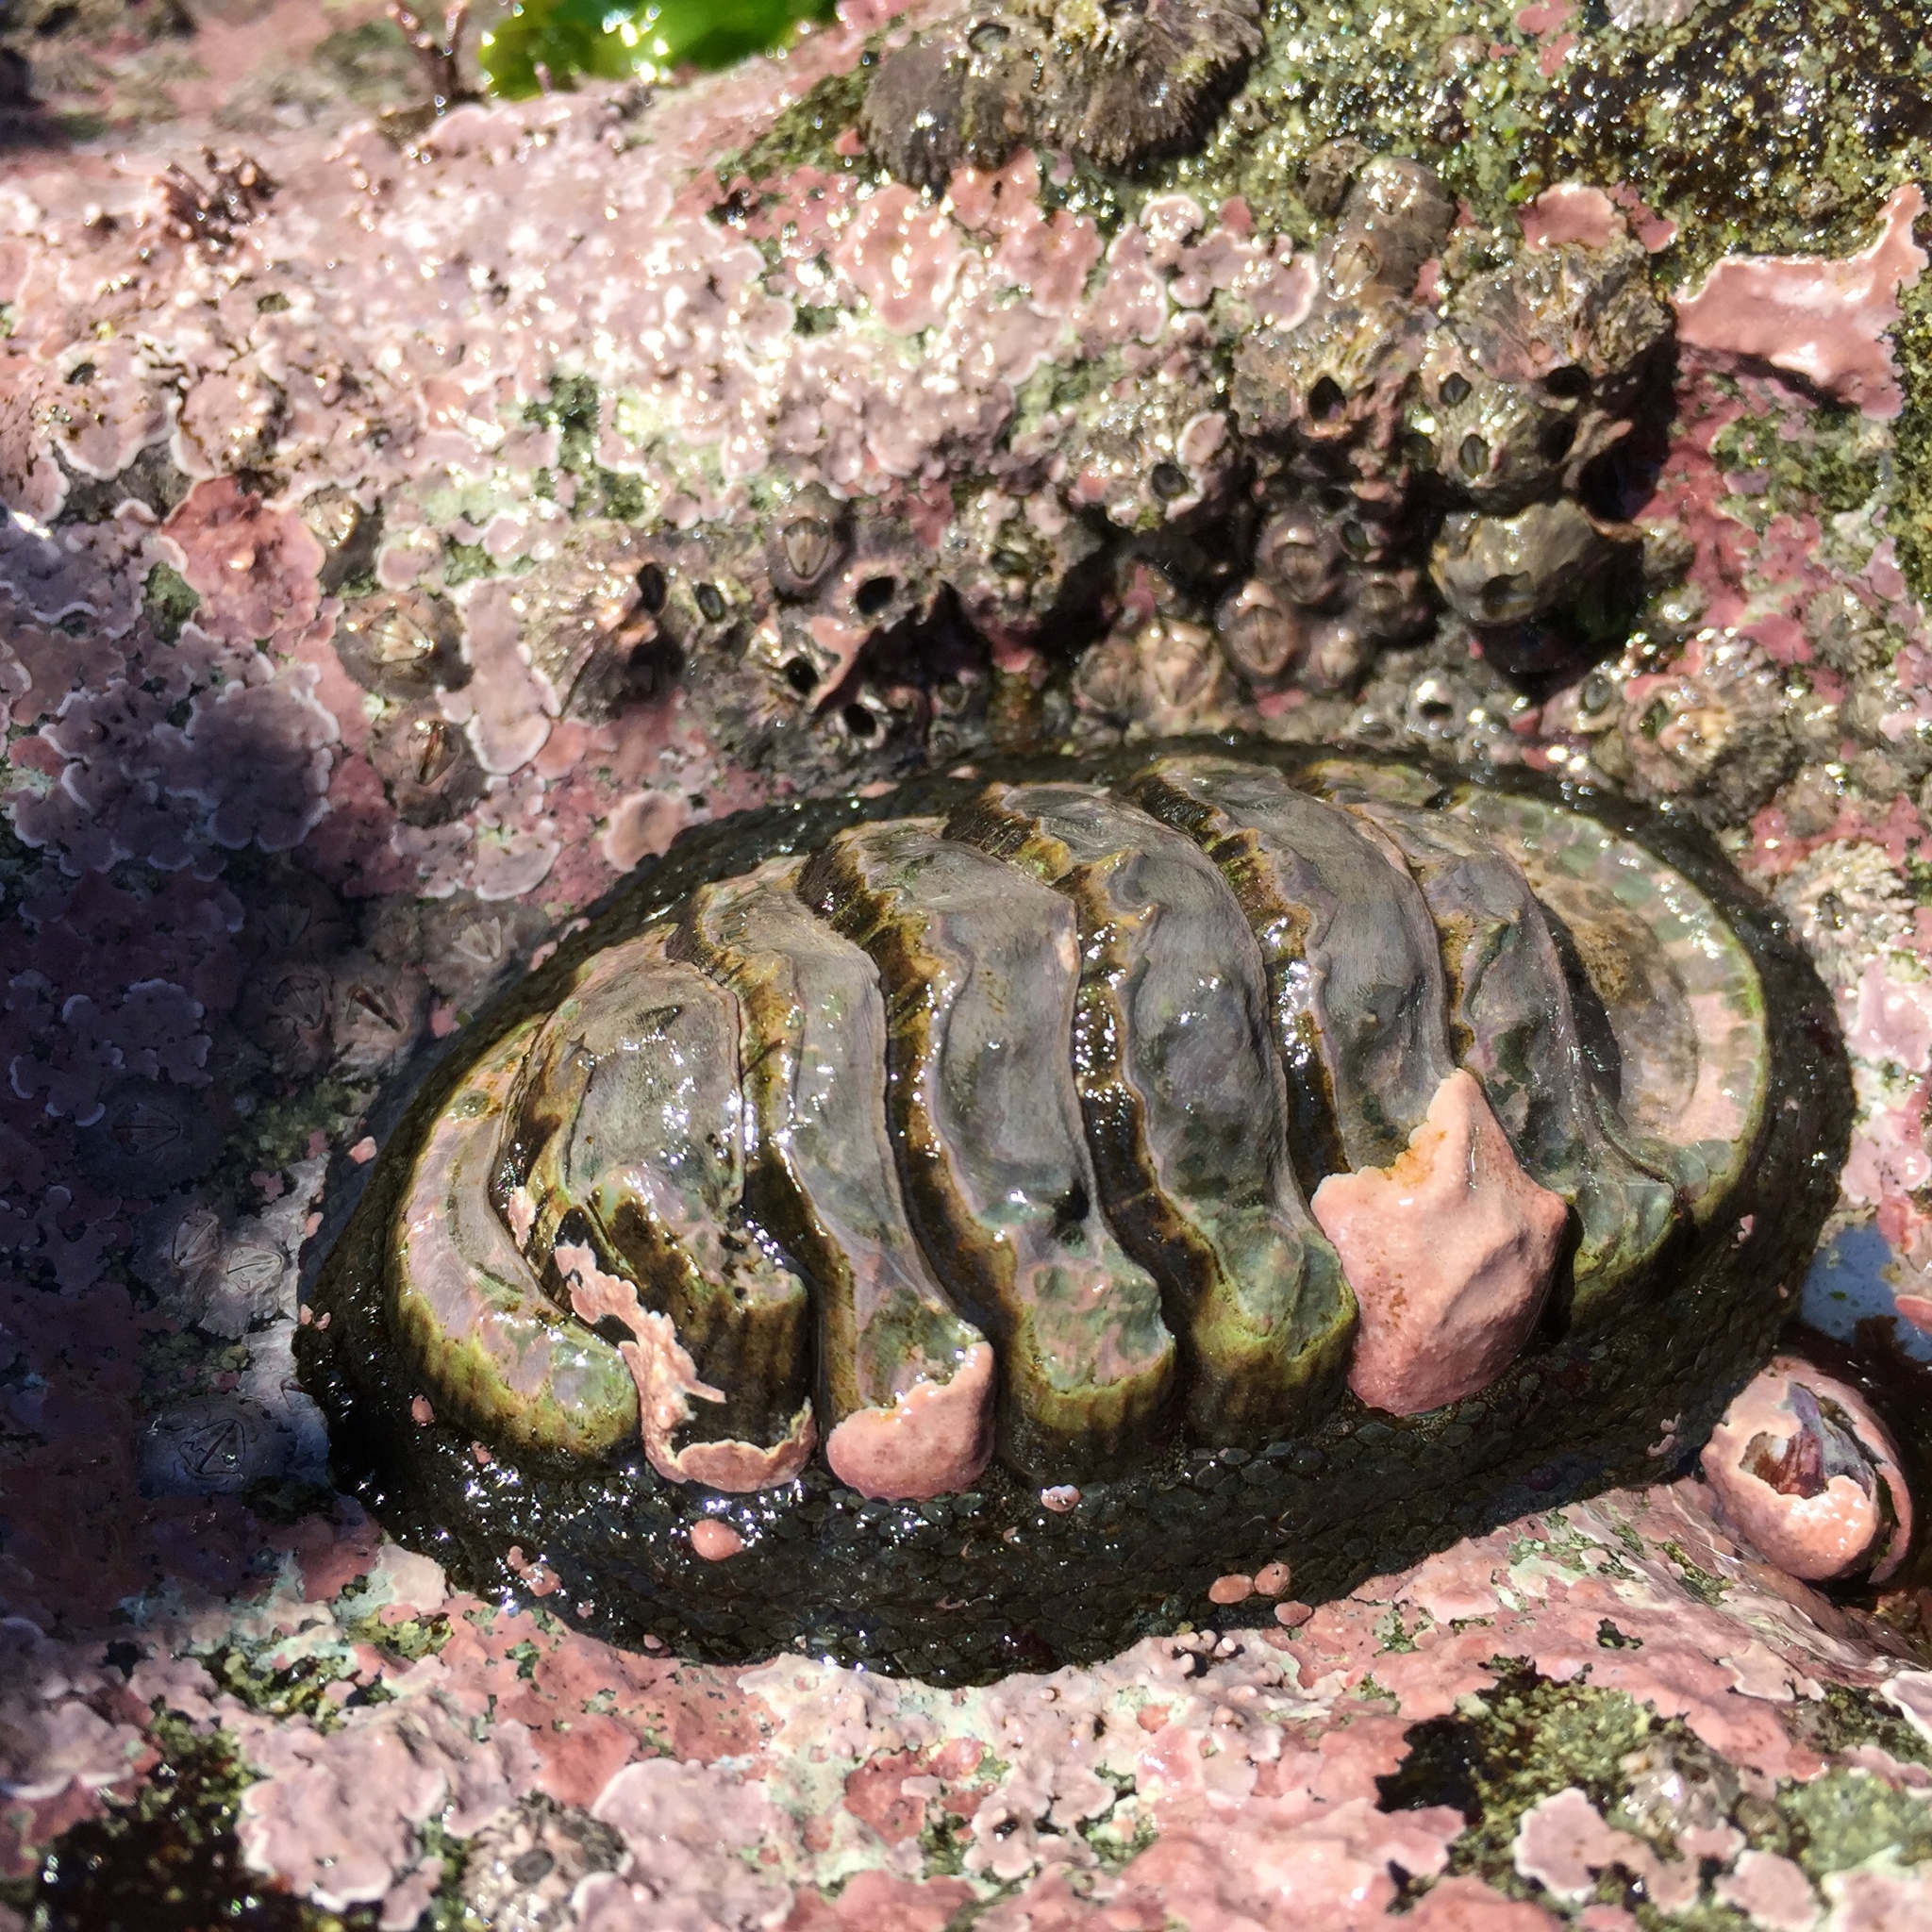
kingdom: Animalia
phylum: Mollusca
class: Polyplacophora
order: Chitonida
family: Chitonidae
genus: Chiton
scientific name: Chiton granosus
